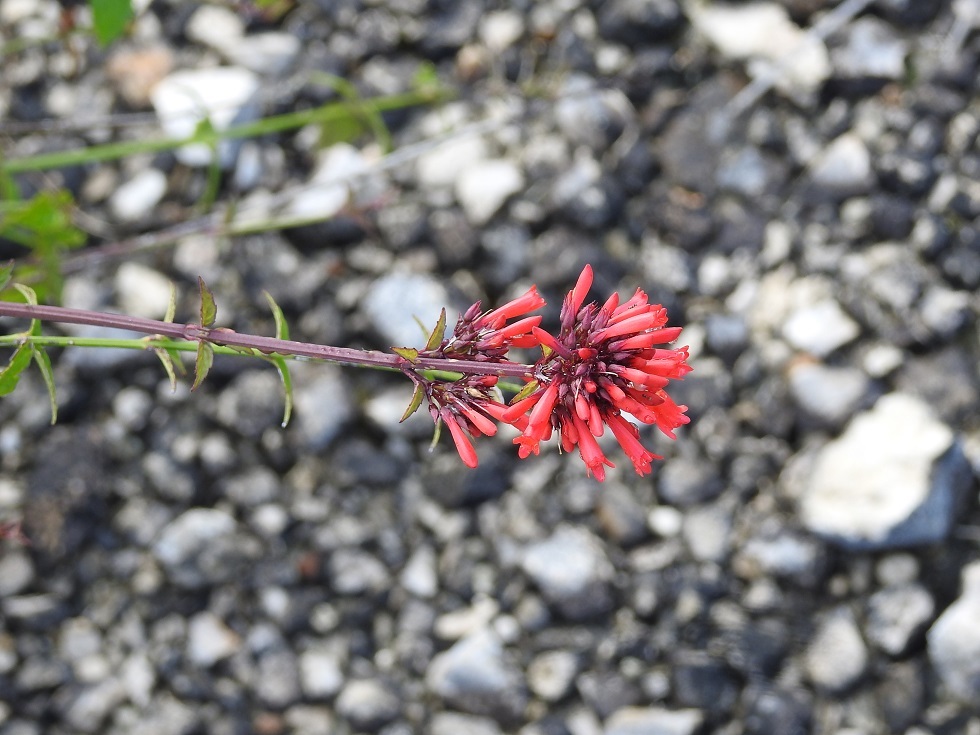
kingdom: Plantae
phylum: Tracheophyta
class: Magnoliopsida
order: Lamiales
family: Plantaginaceae
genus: Russelia
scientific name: Russelia verticillata
